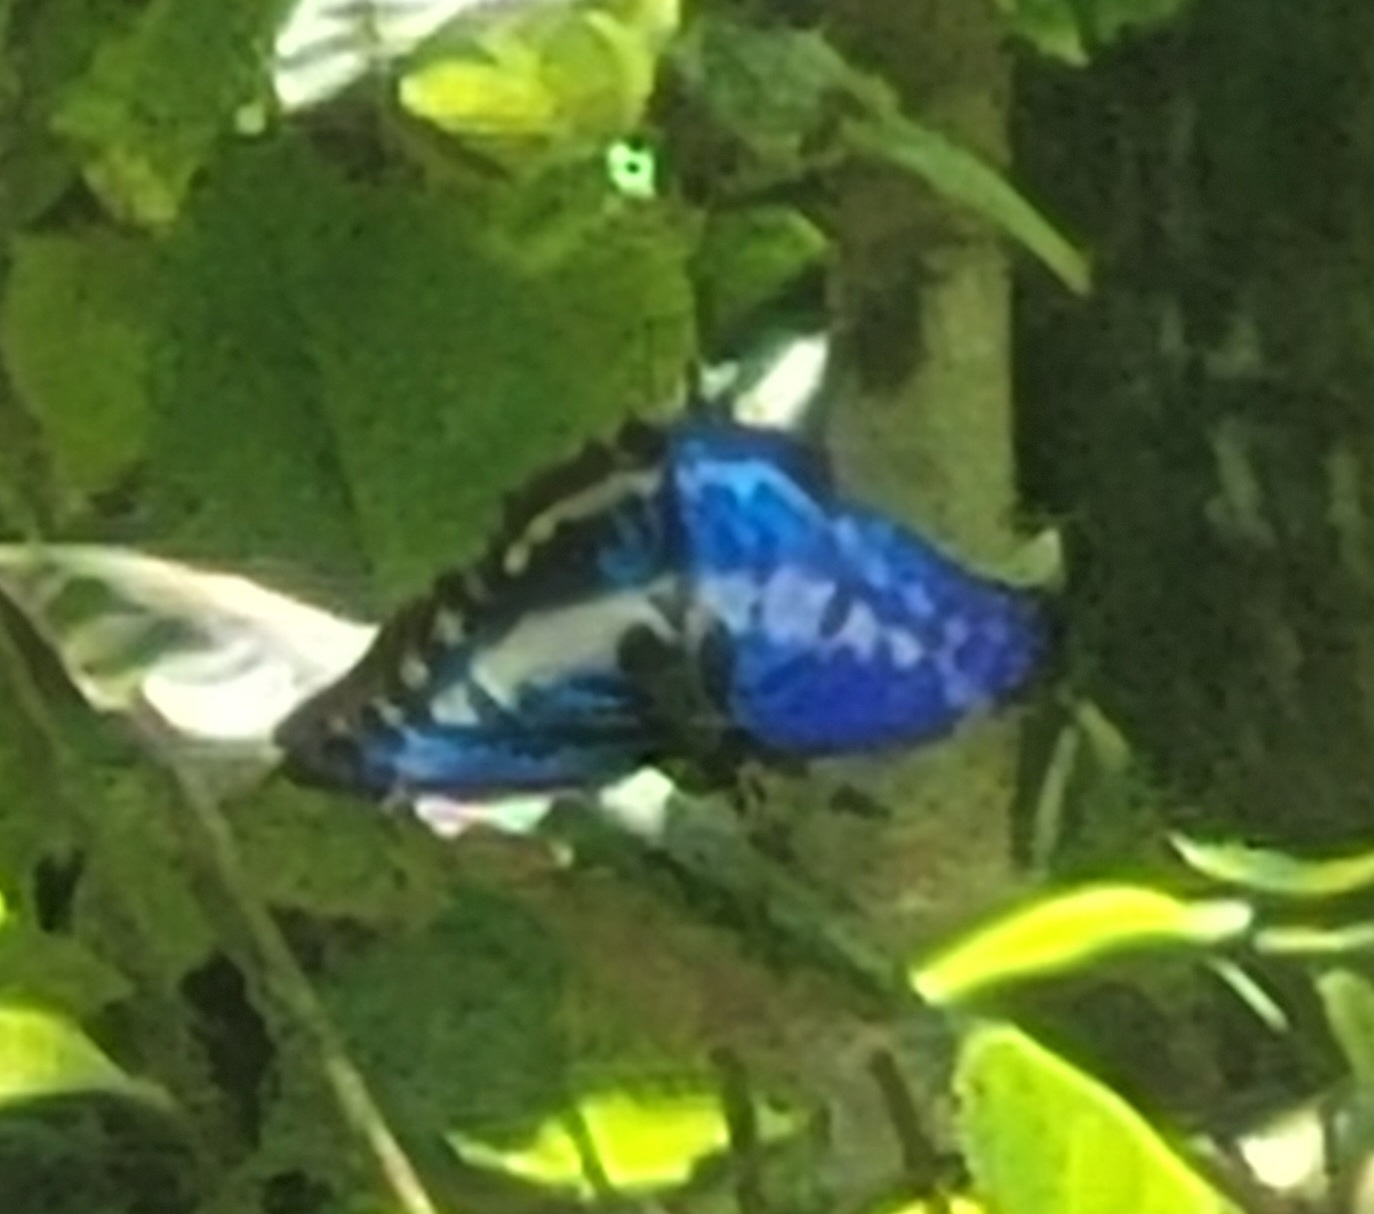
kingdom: Animalia
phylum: Arthropoda
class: Insecta
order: Lepidoptera
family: Nymphalidae
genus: Morpho
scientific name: Morpho cypris
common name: Cypris morpho
